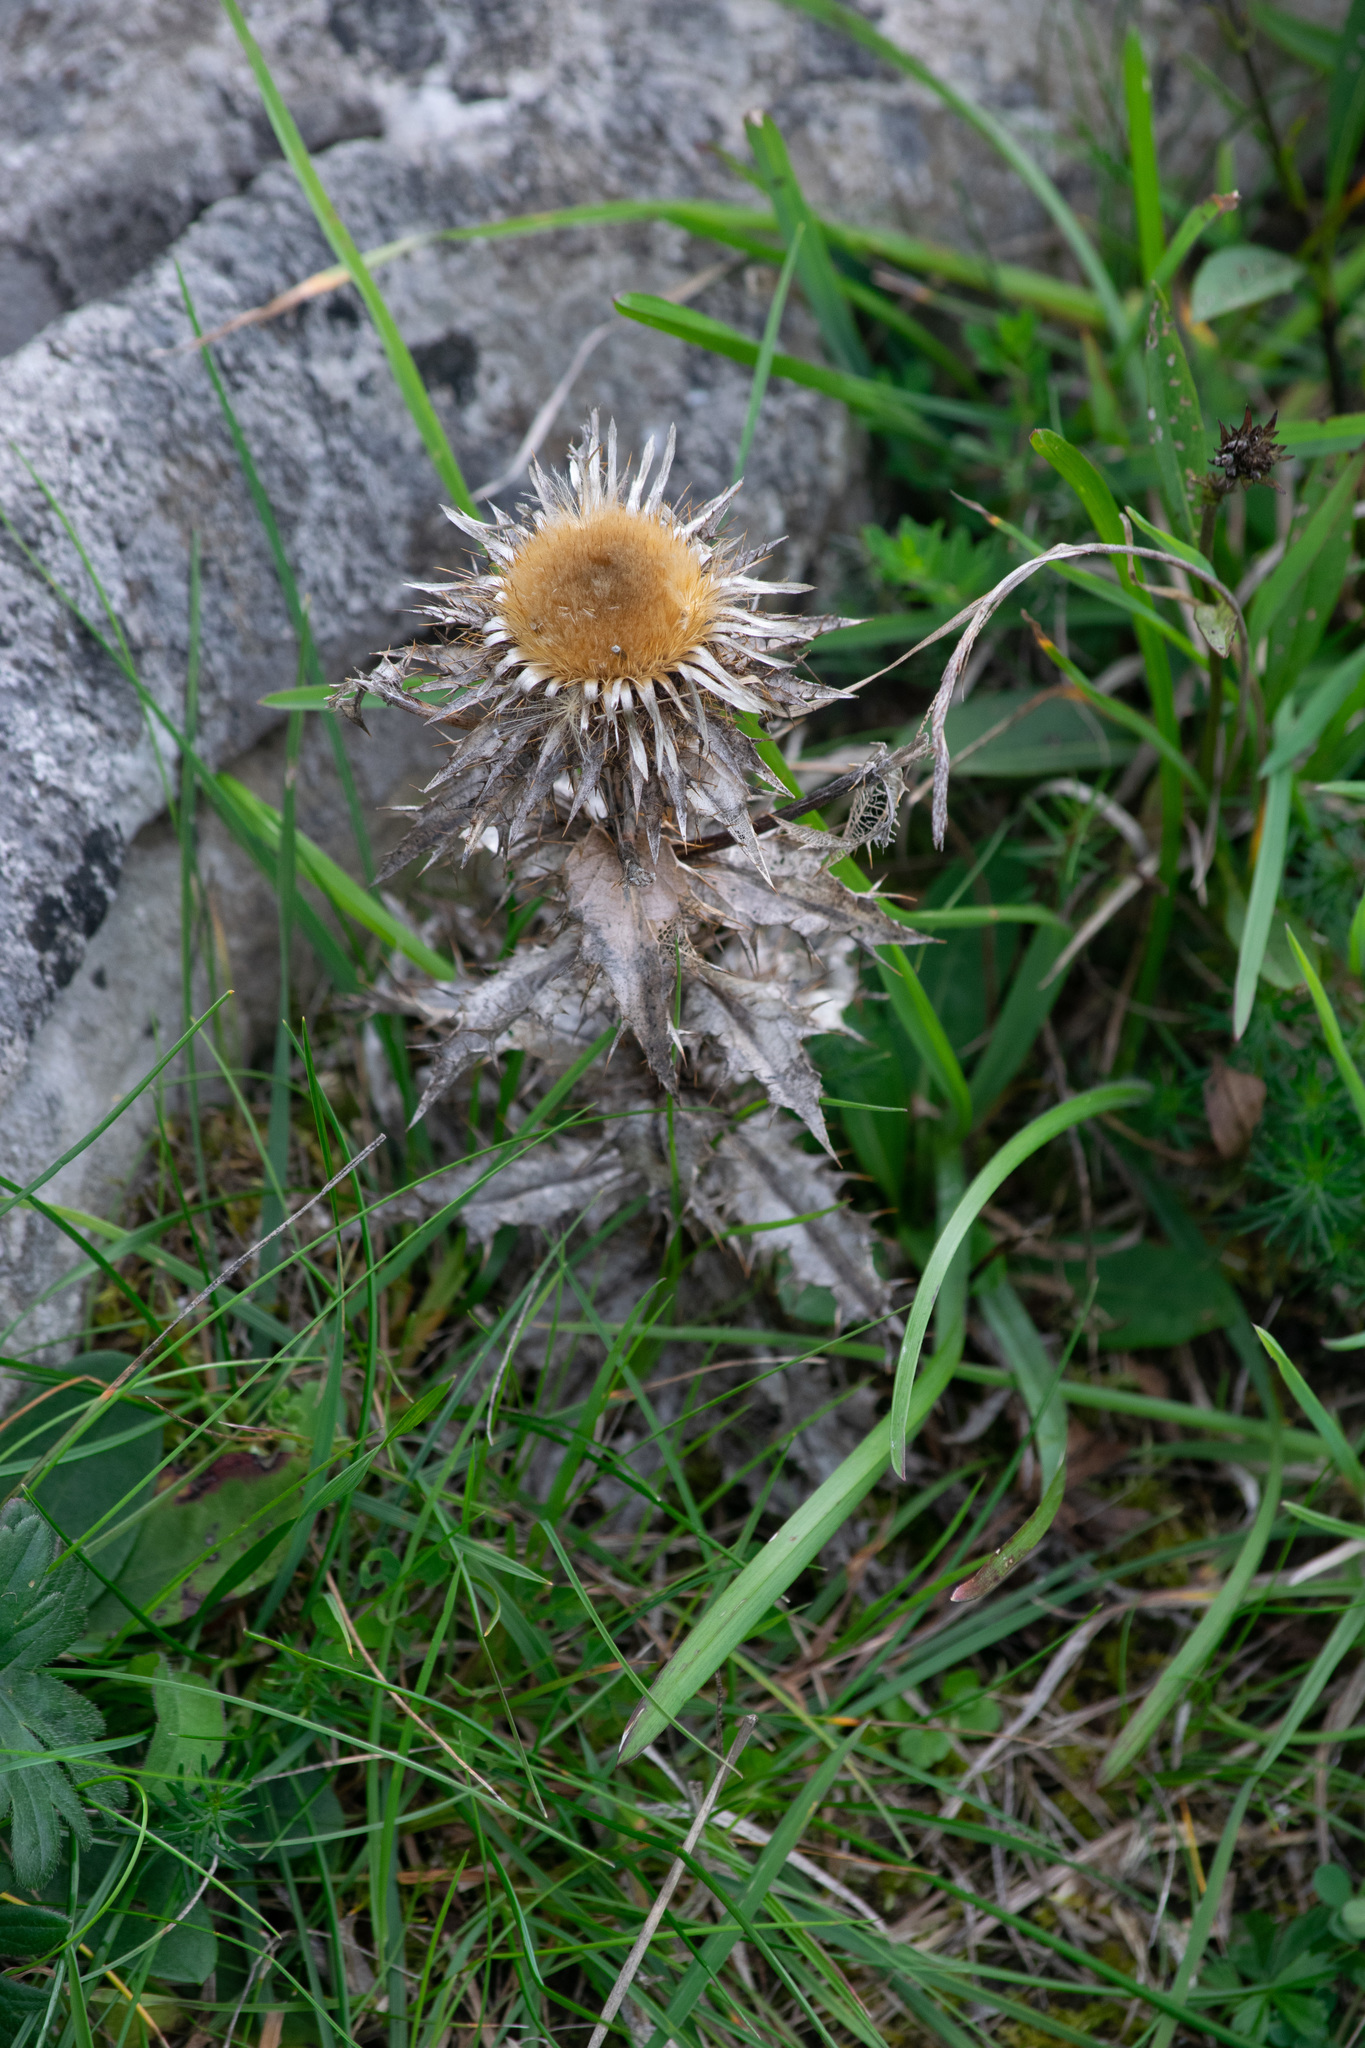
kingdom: Plantae
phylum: Tracheophyta
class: Magnoliopsida
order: Asterales
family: Asteraceae
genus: Carlina
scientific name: Carlina vulgaris
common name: Carline thistle
